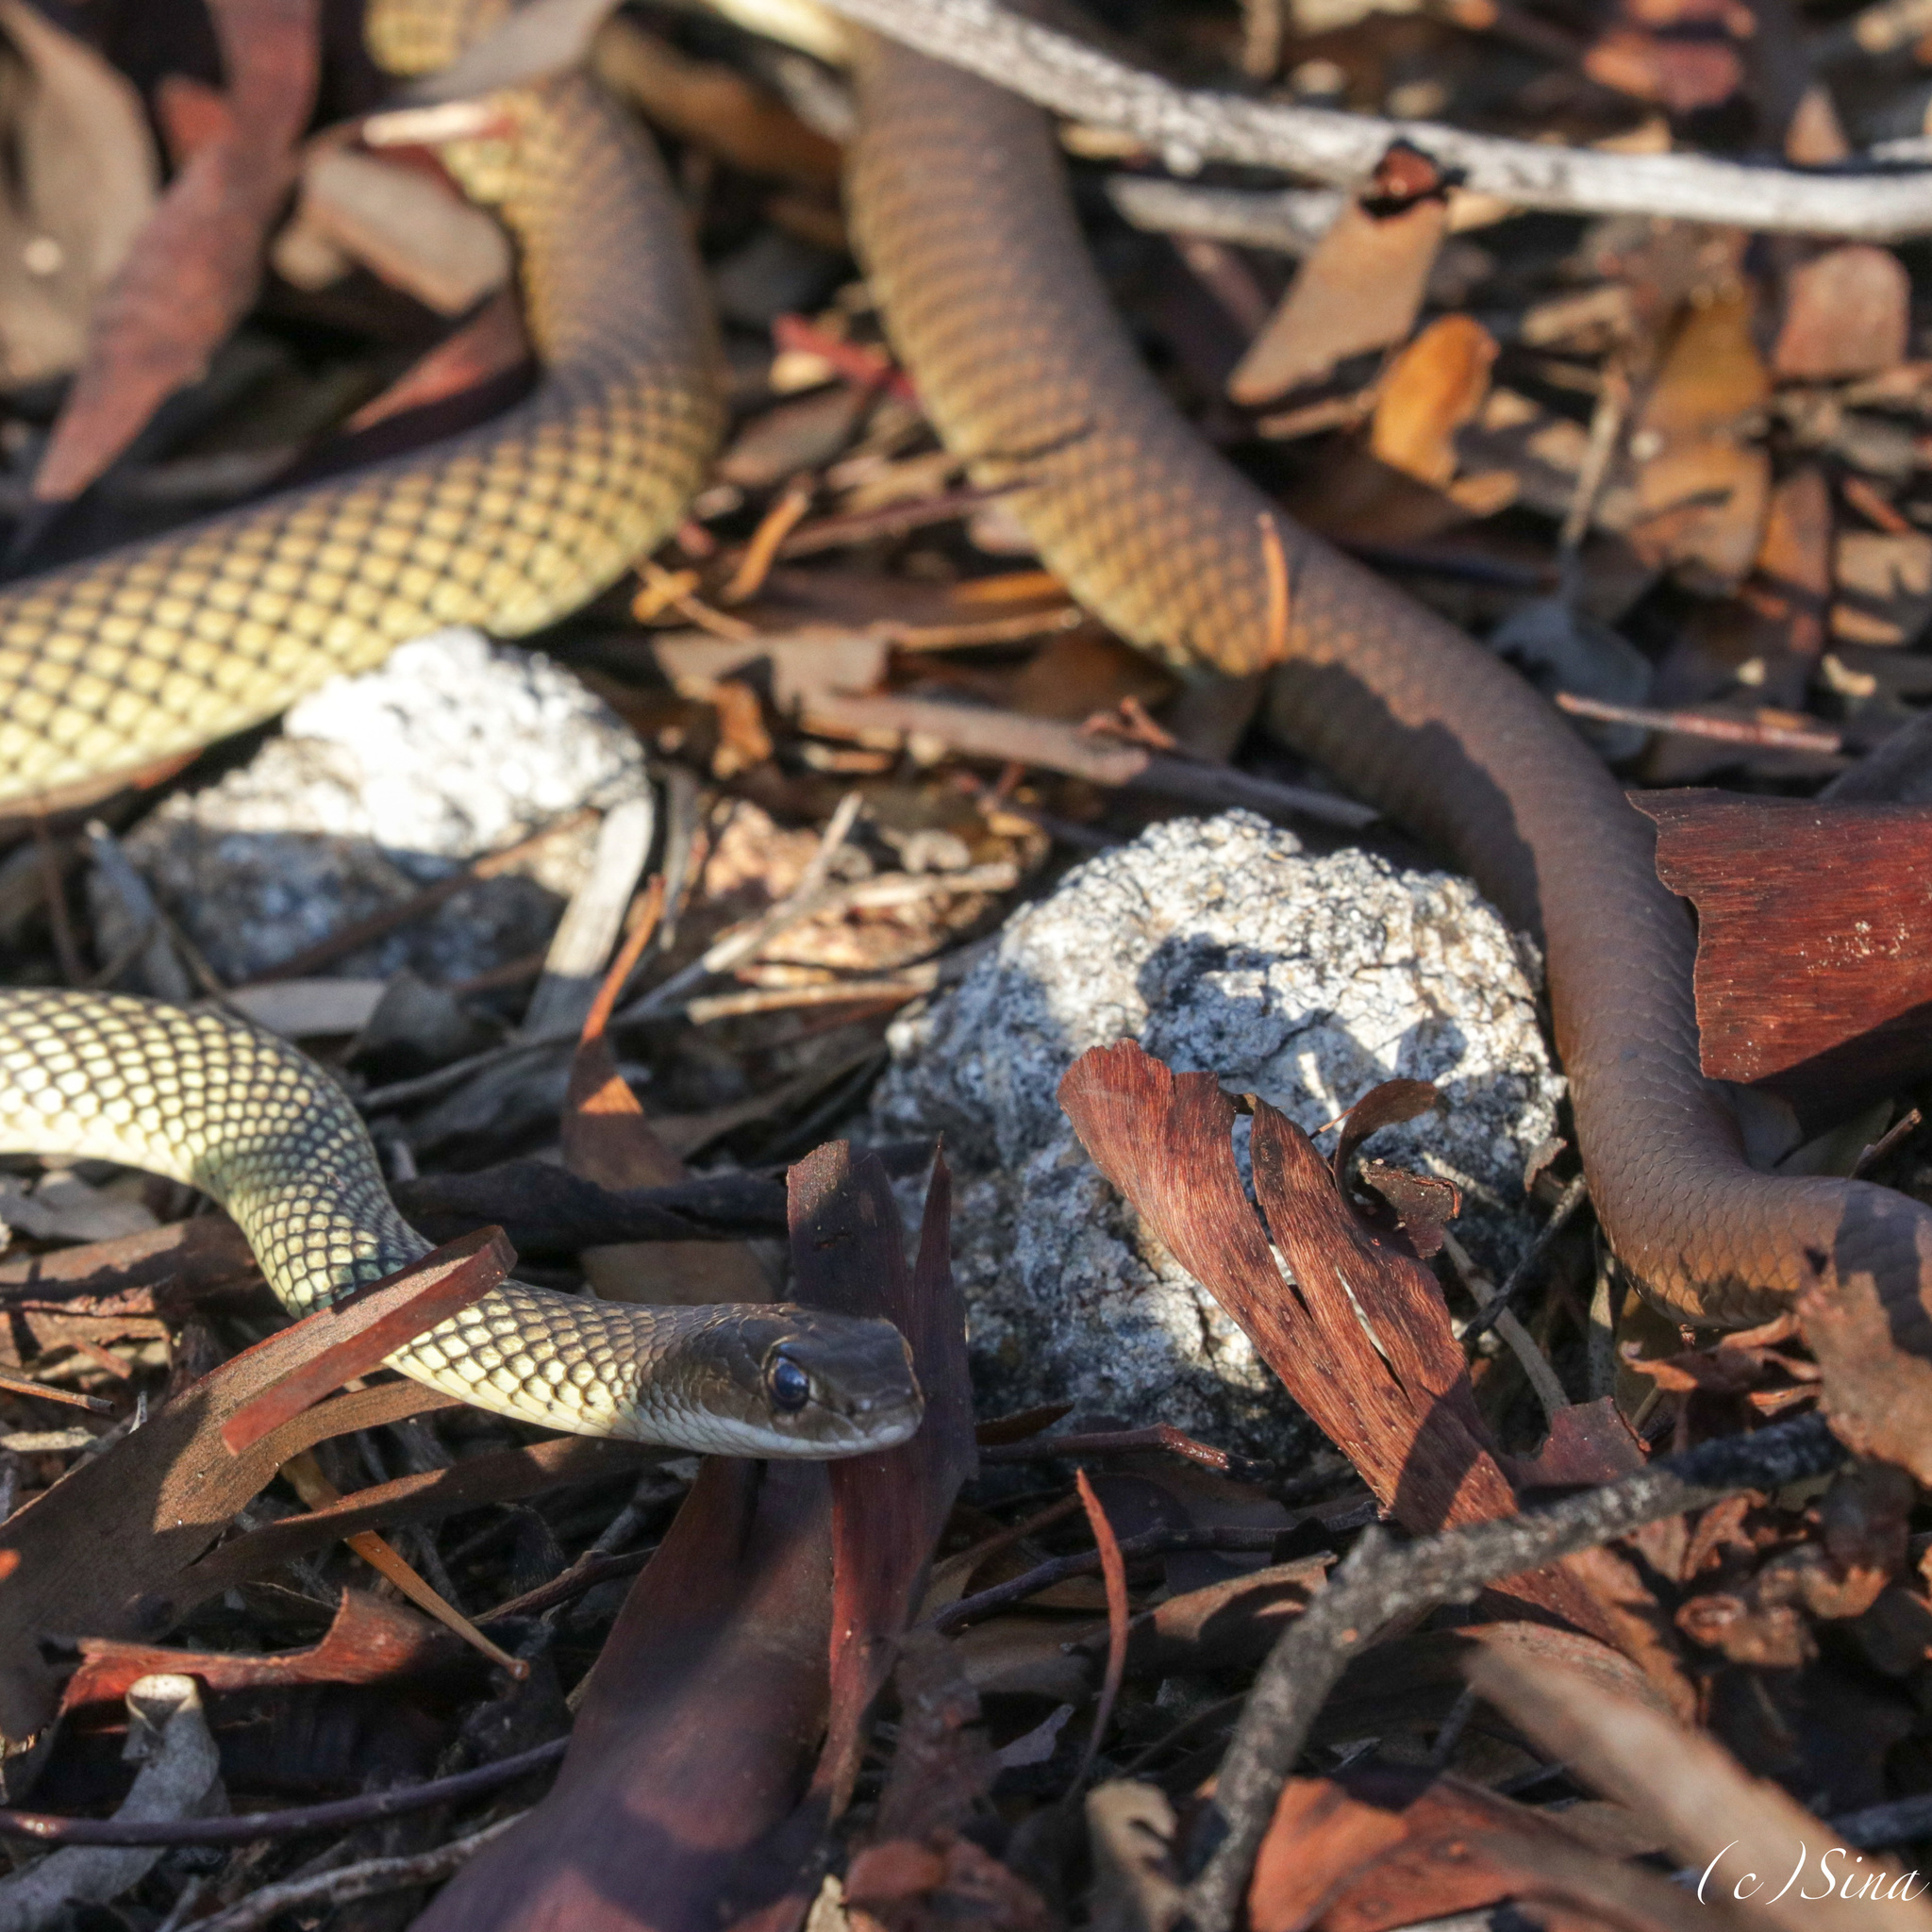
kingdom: Animalia
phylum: Chordata
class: Squamata
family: Elapidae
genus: Demansia
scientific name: Demansia reticulata
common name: Yellow-faced whip snake
